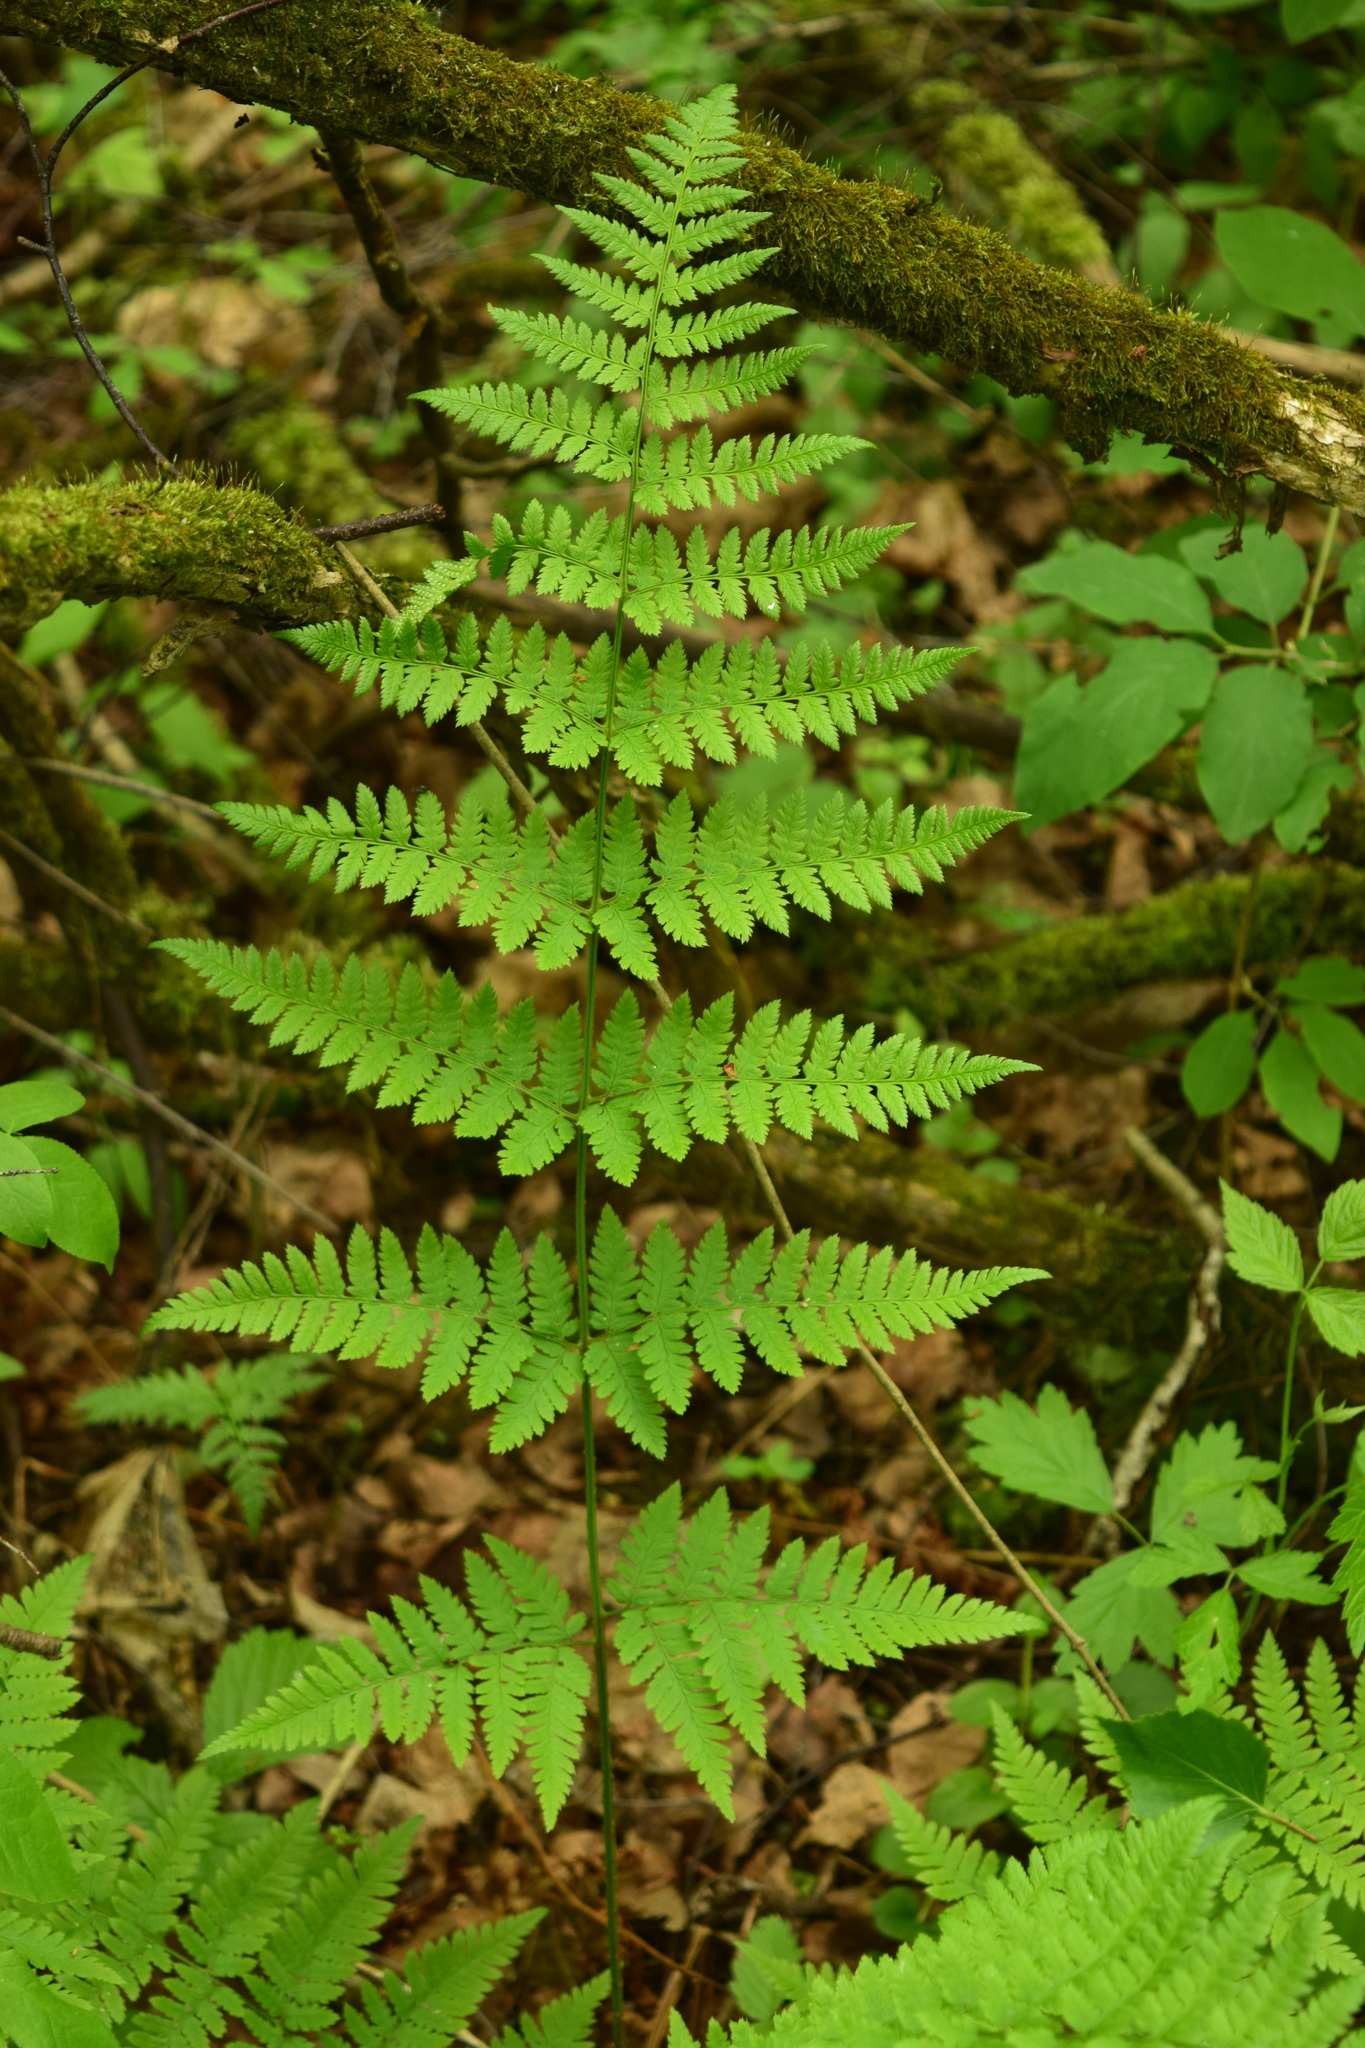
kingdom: Plantae
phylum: Tracheophyta
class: Polypodiopsida
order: Polypodiales
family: Dryopteridaceae
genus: Dryopteris
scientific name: Dryopteris carthusiana
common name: Narrow buckler-fern
